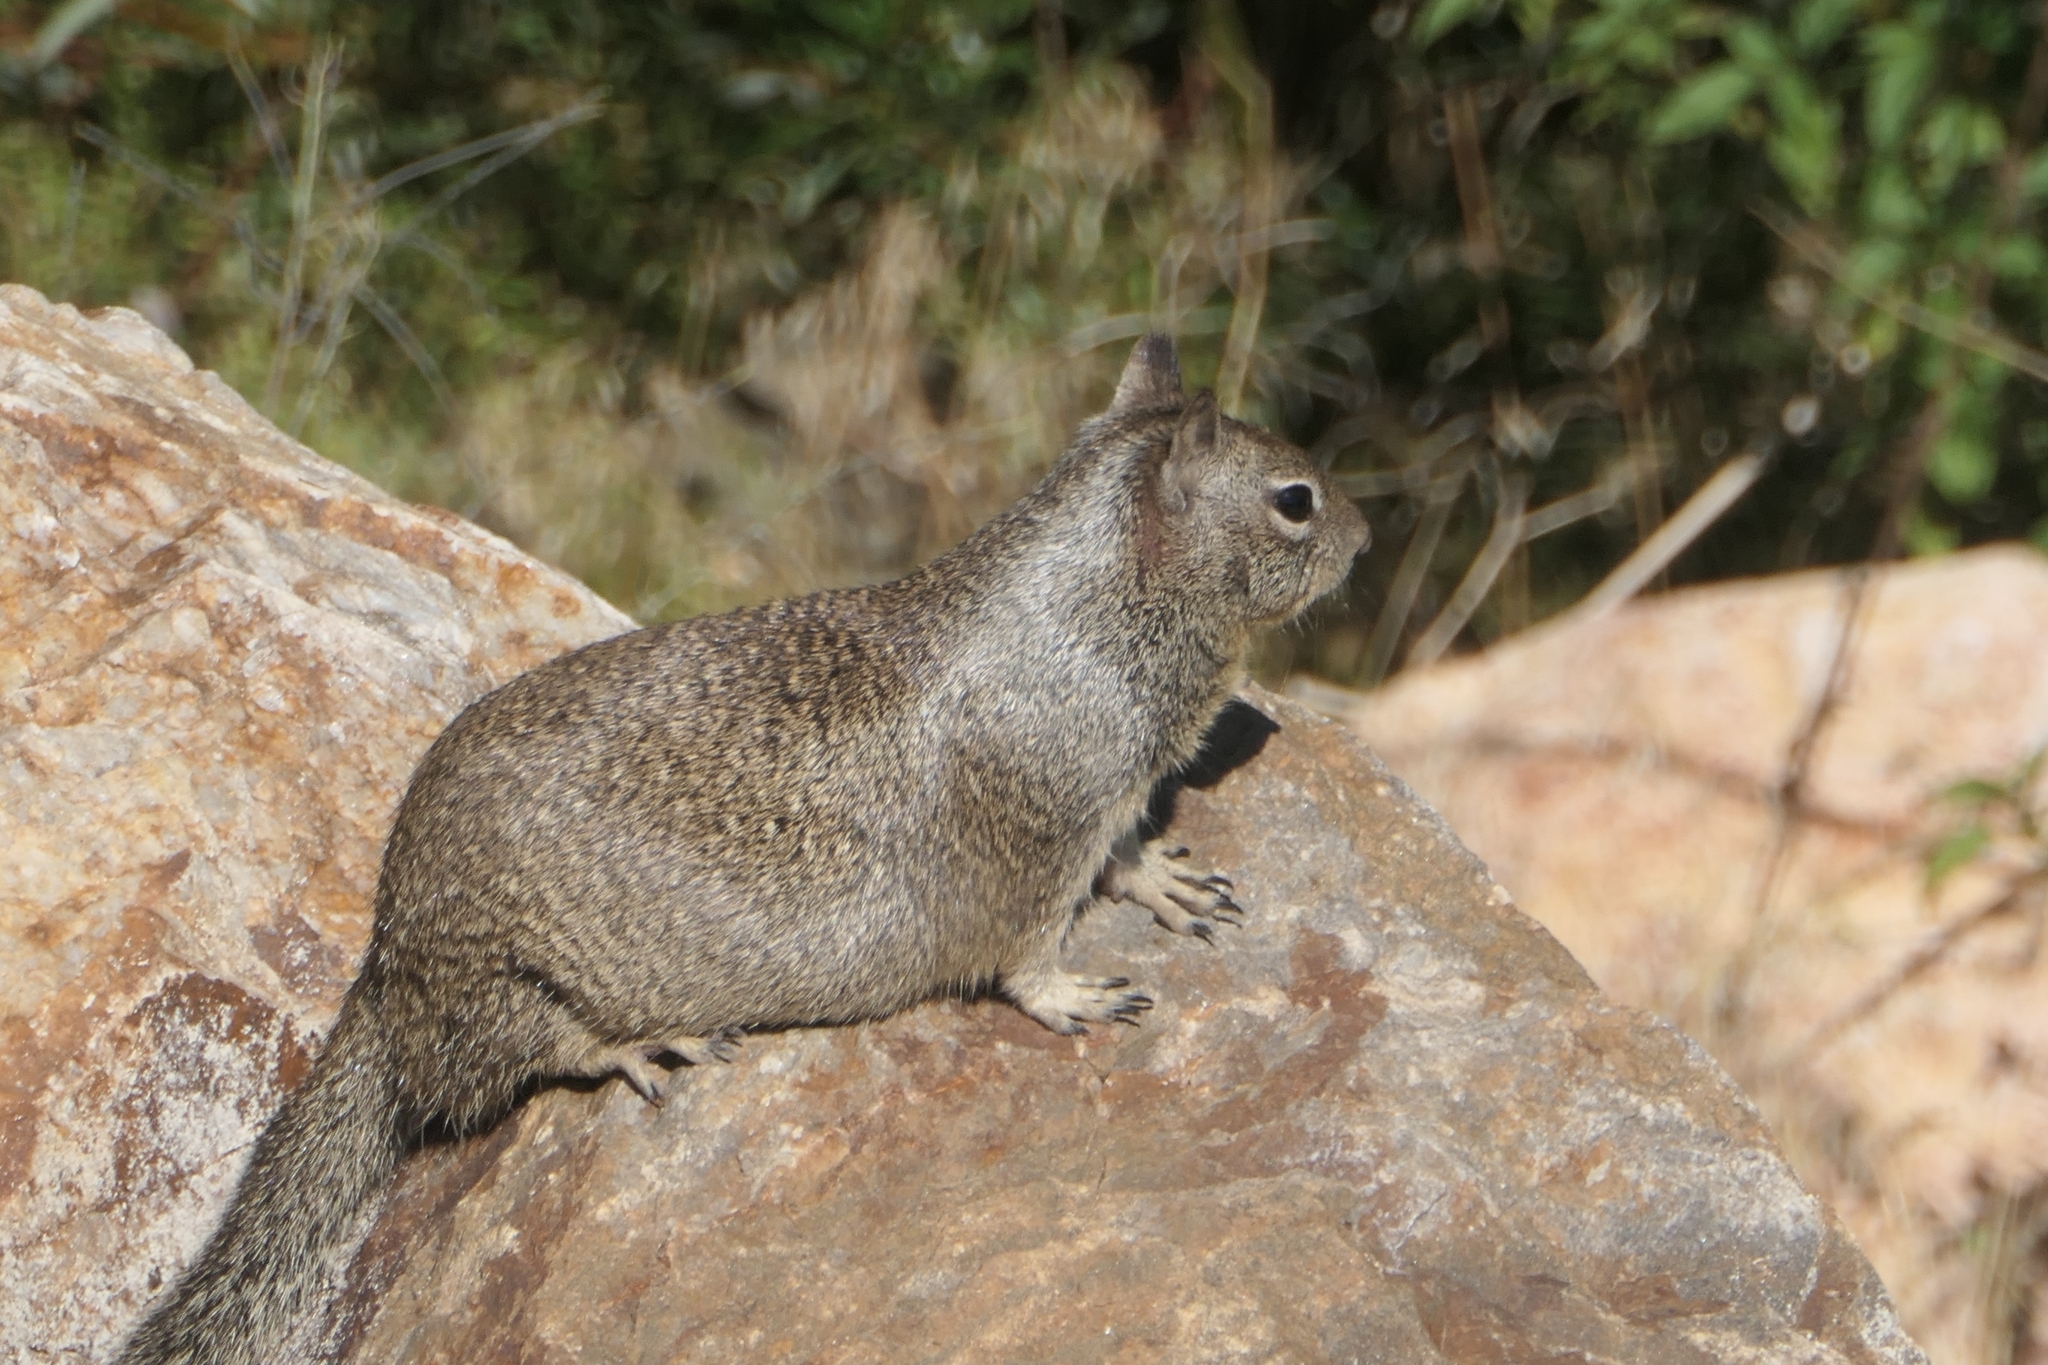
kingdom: Animalia
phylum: Chordata
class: Mammalia
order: Rodentia
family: Sciuridae
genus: Otospermophilus
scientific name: Otospermophilus beecheyi
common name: California ground squirrel
